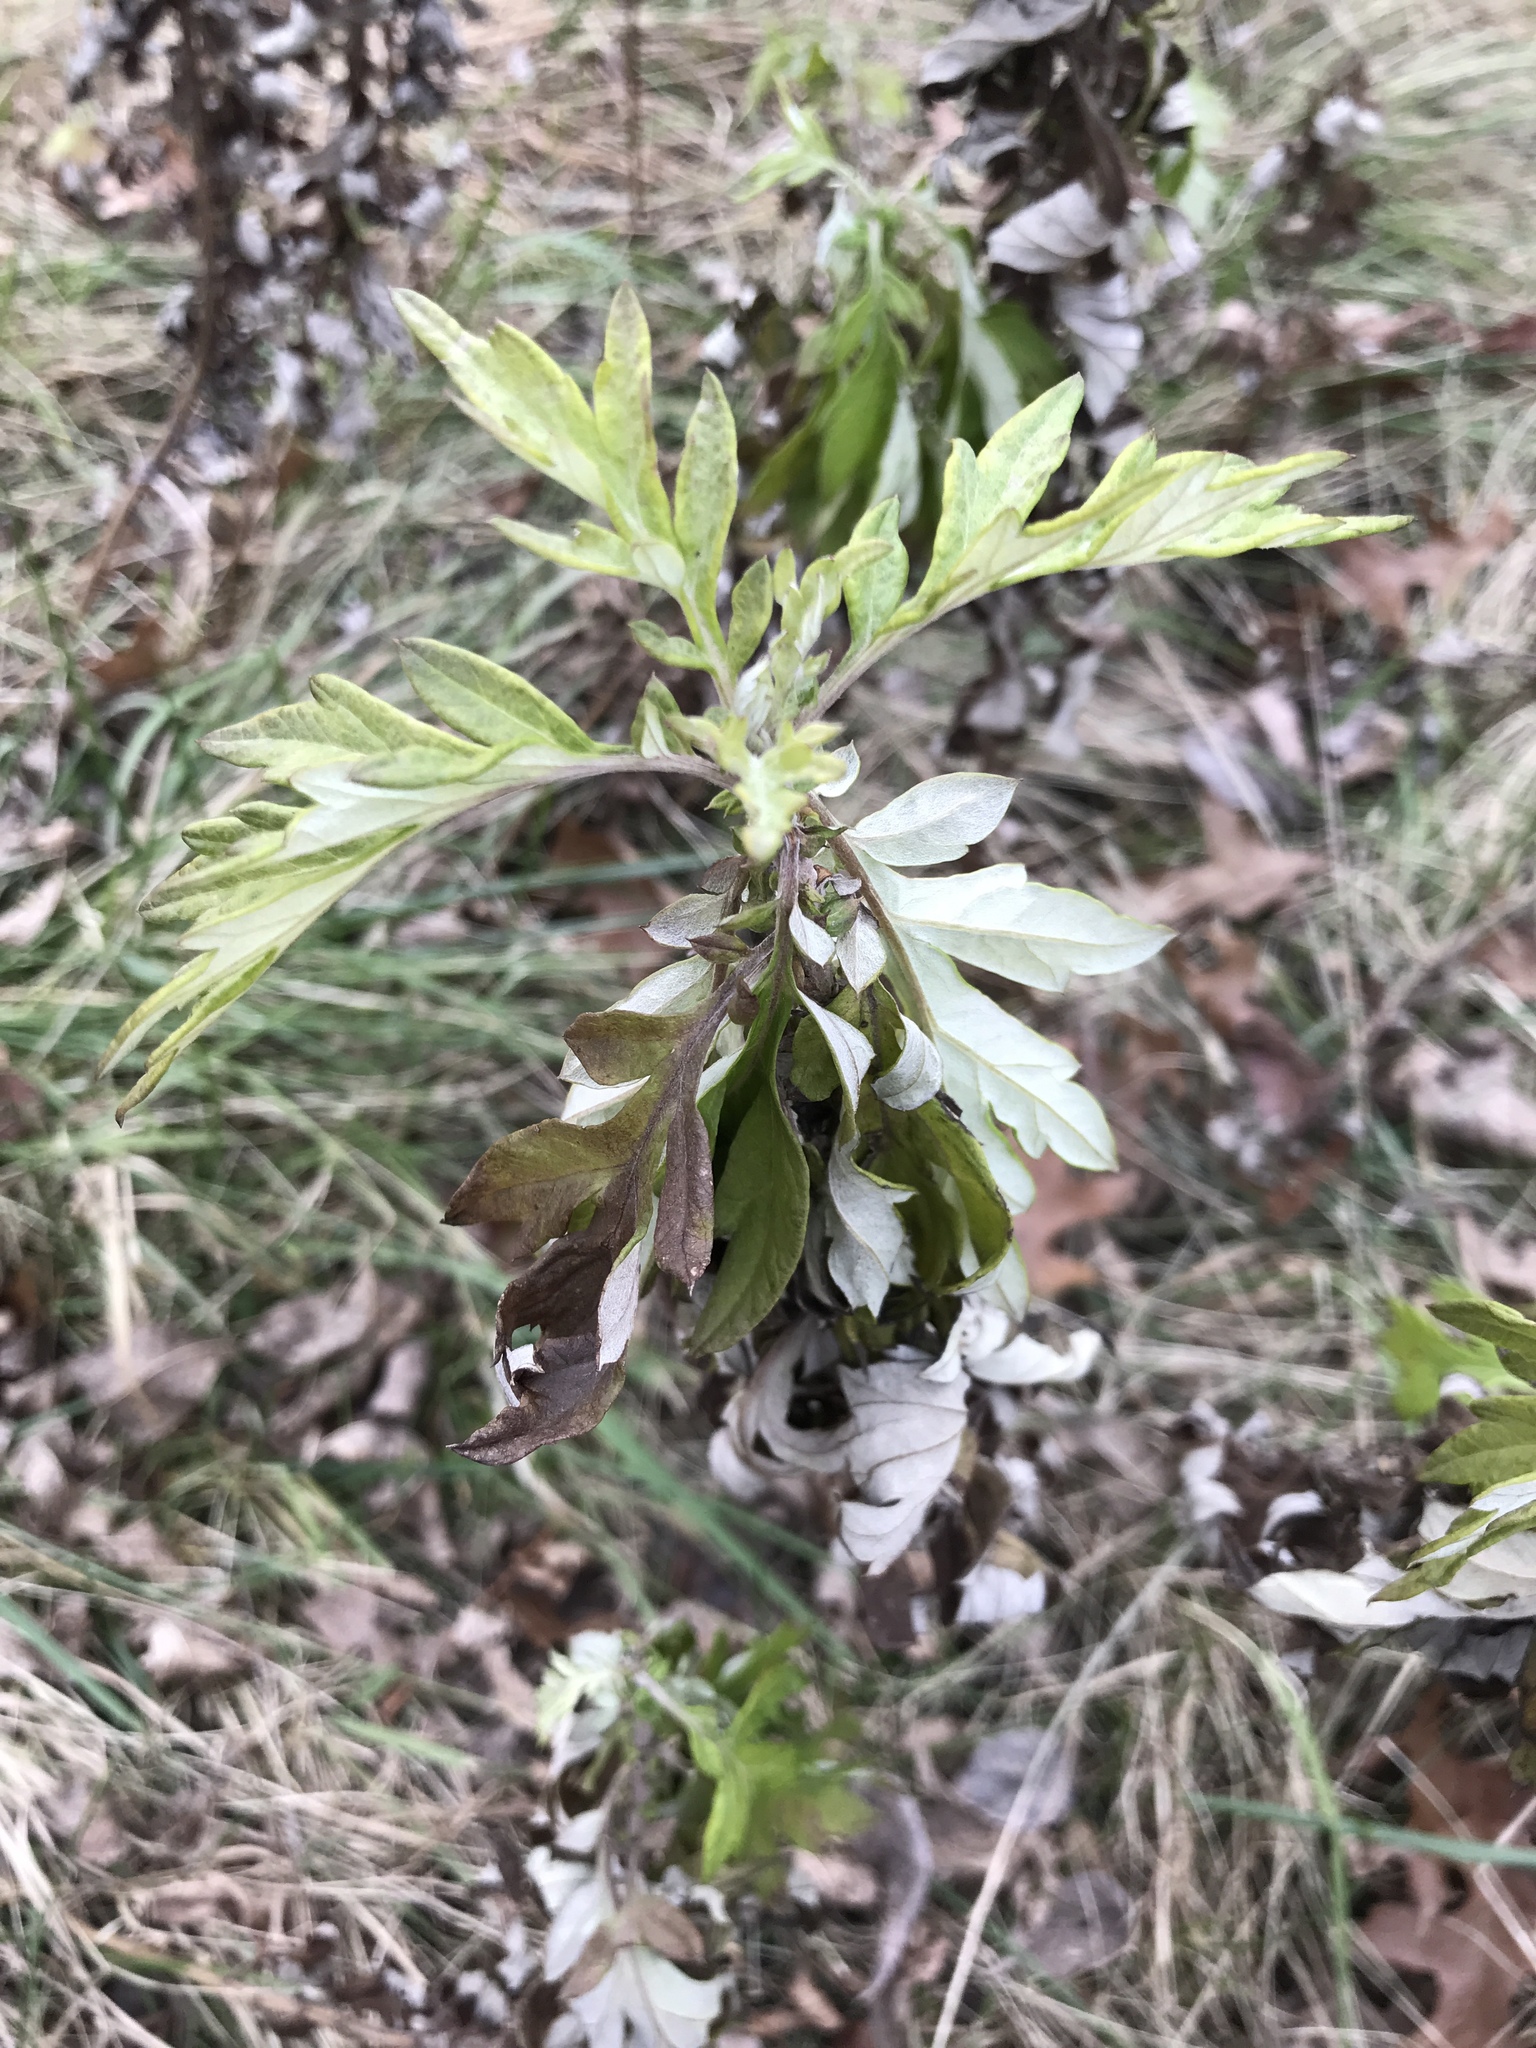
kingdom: Plantae
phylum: Tracheophyta
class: Magnoliopsida
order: Asterales
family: Asteraceae
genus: Artemisia
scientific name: Artemisia vulgaris
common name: Mugwort
